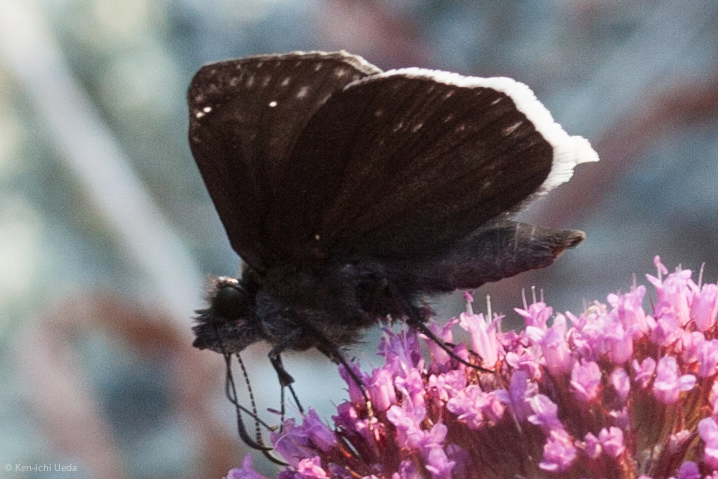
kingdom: Animalia
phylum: Arthropoda
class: Insecta
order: Lepidoptera
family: Hesperiidae
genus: Erynnis
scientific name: Erynnis tristis
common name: Mournful duskywing
